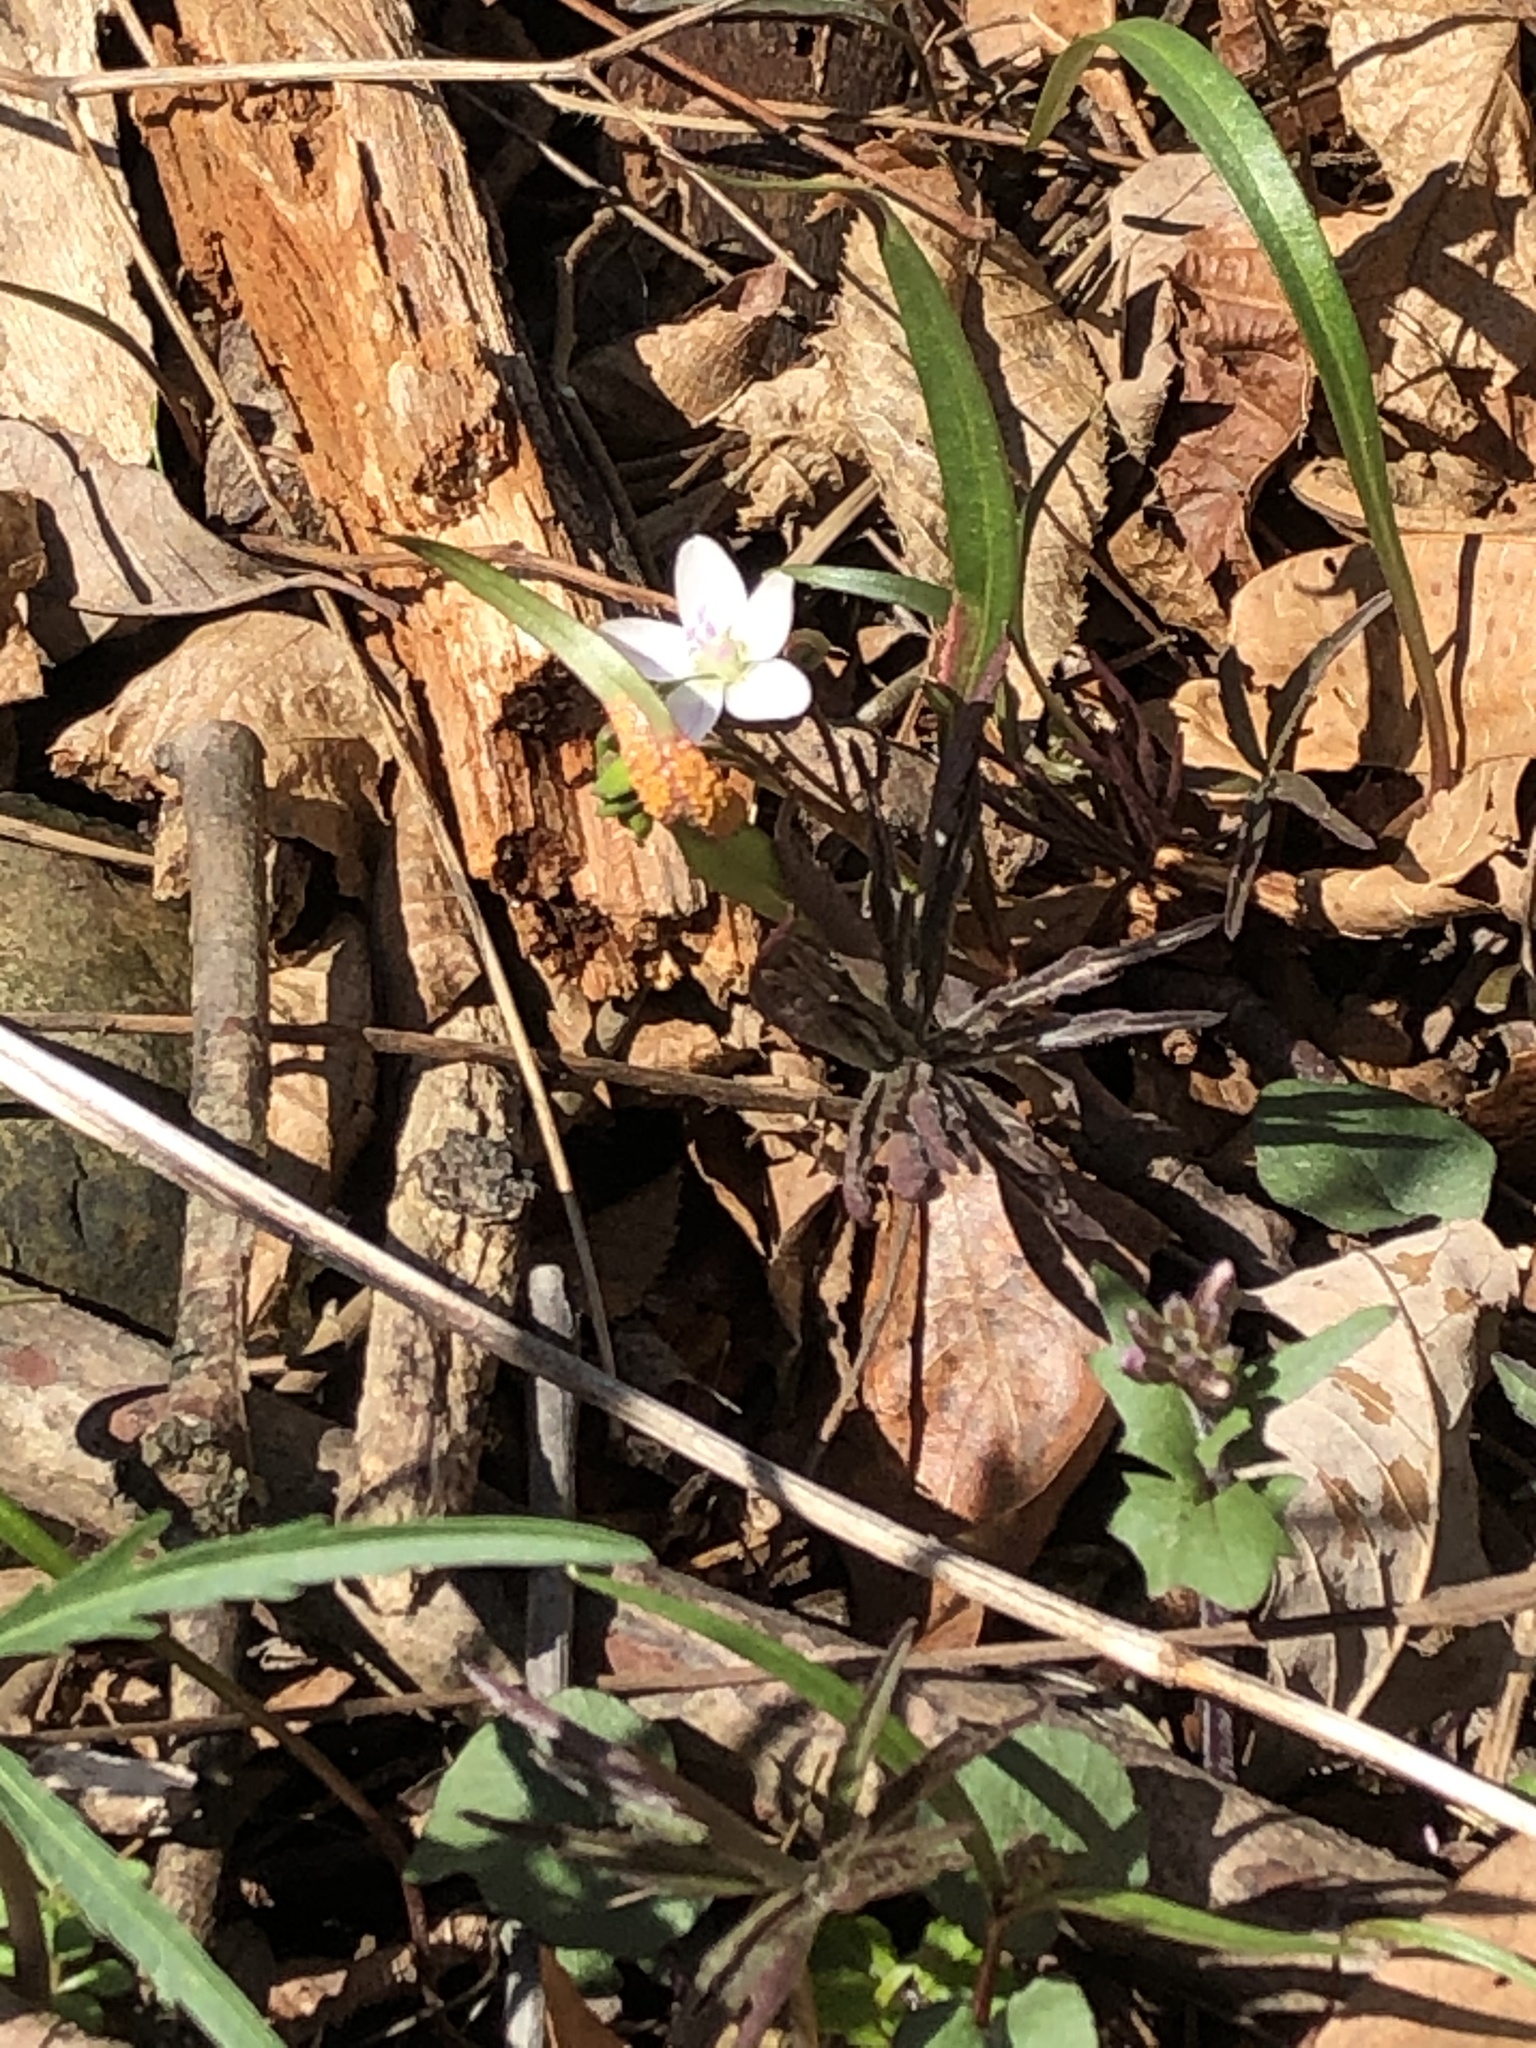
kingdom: Plantae
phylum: Tracheophyta
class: Magnoliopsida
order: Caryophyllales
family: Montiaceae
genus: Claytonia
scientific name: Claytonia virginica
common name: Virginia springbeauty
